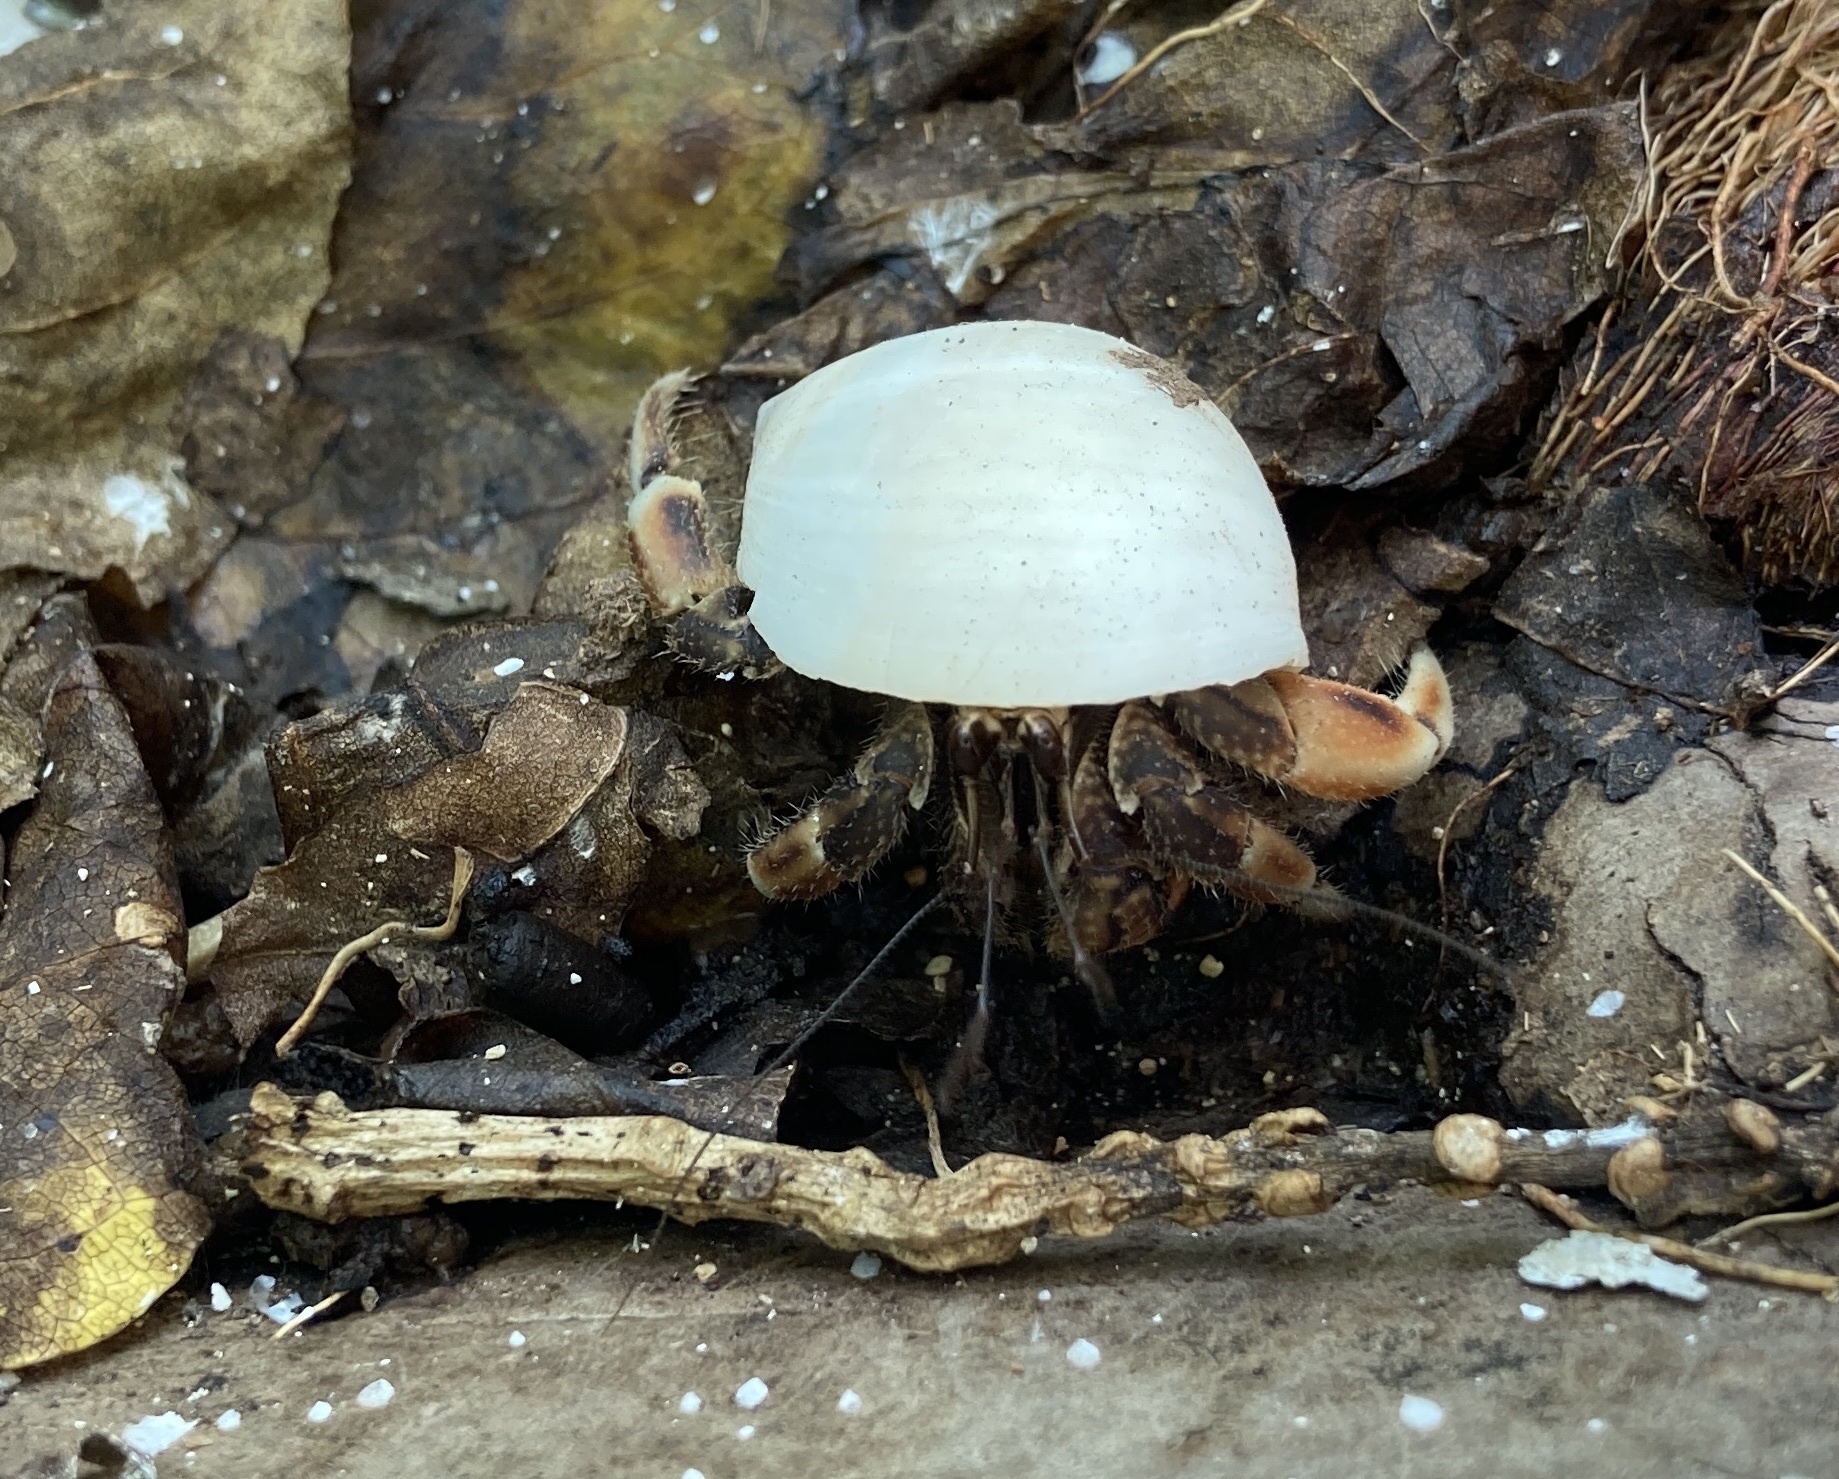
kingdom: Animalia
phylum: Arthropoda
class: Malacostraca
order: Decapoda
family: Coenobitidae
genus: Coenobita
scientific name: Coenobita rugosus
